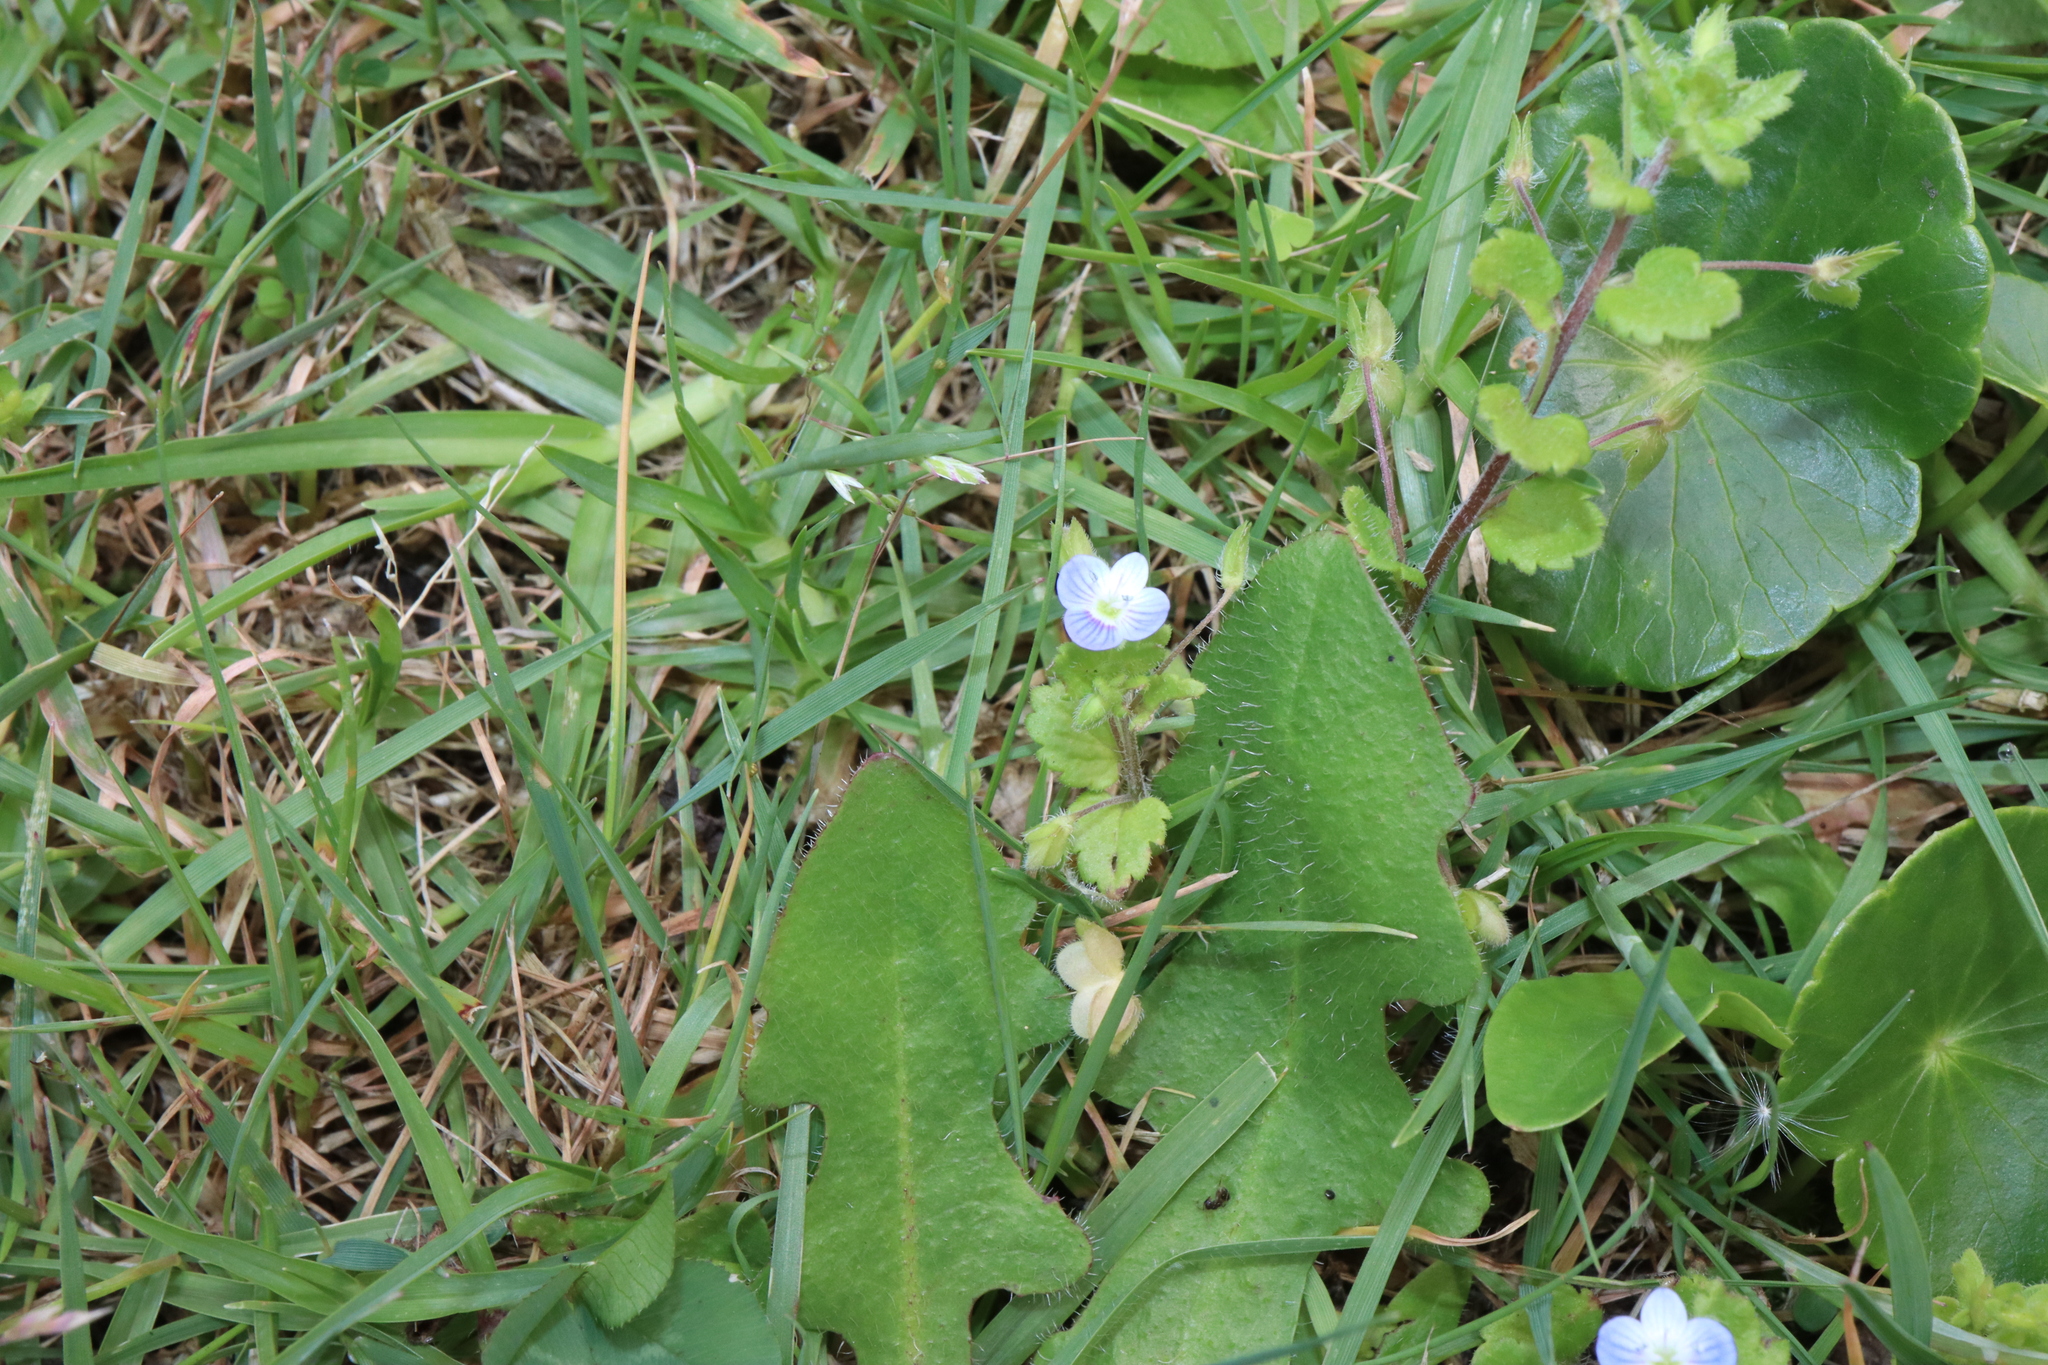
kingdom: Plantae
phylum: Tracheophyta
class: Magnoliopsida
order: Lamiales
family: Plantaginaceae
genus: Veronica
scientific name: Veronica persica
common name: Common field-speedwell
